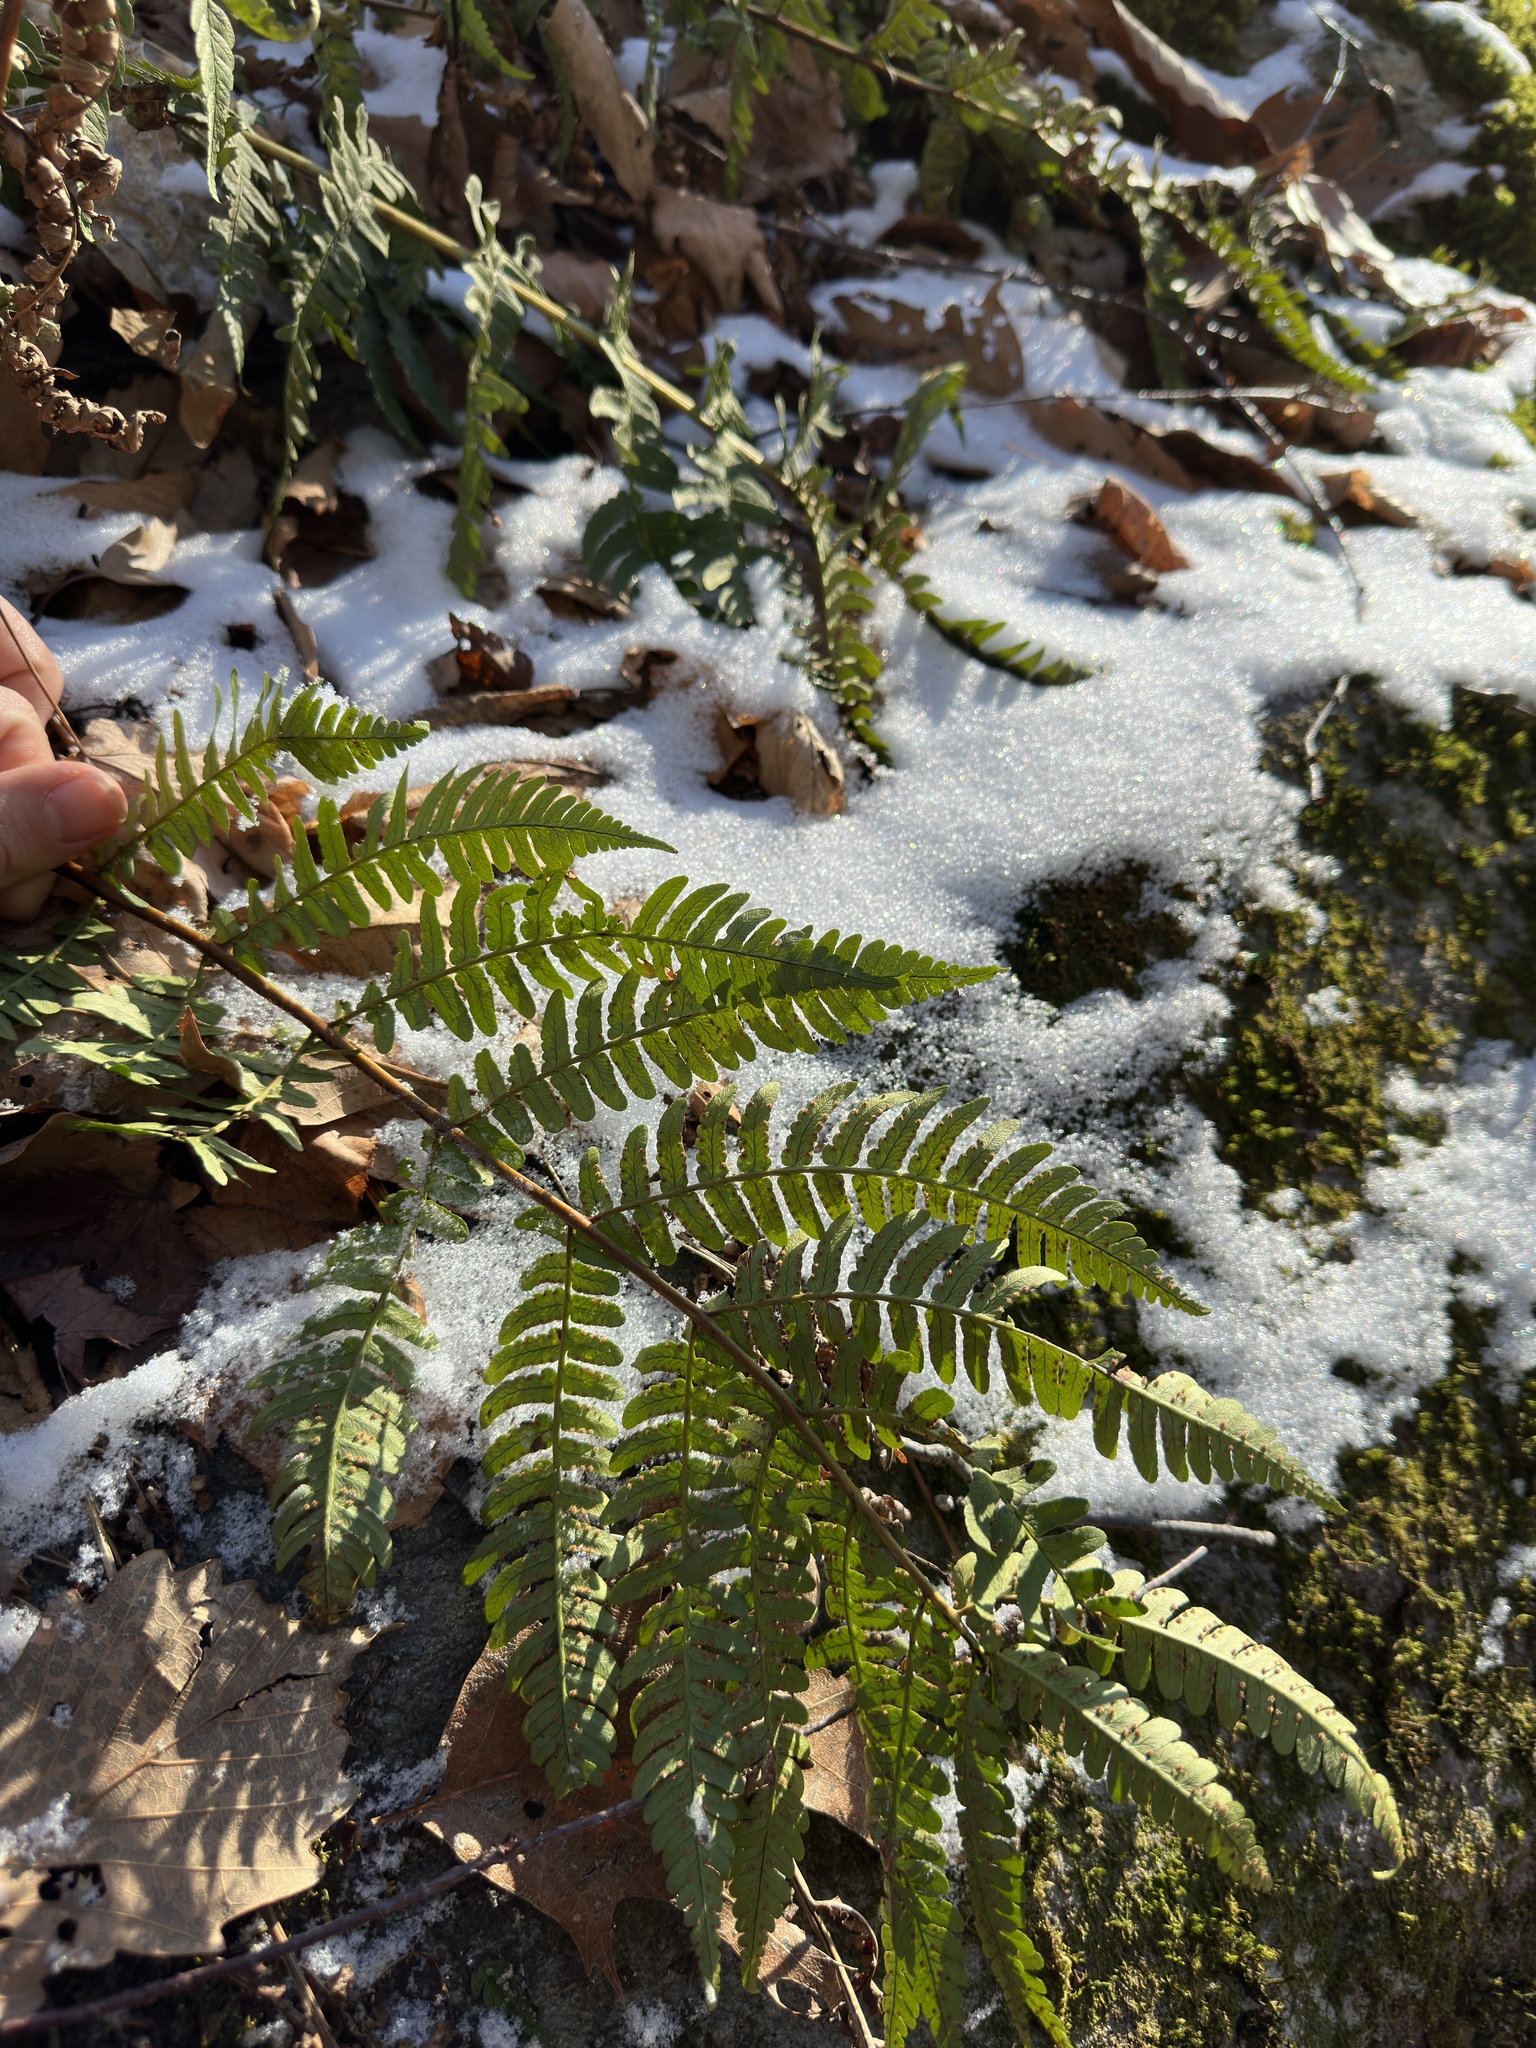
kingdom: Plantae
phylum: Tracheophyta
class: Polypodiopsida
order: Polypodiales
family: Dryopteridaceae
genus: Dryopteris
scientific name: Dryopteris marginalis
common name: Marginal wood fern
